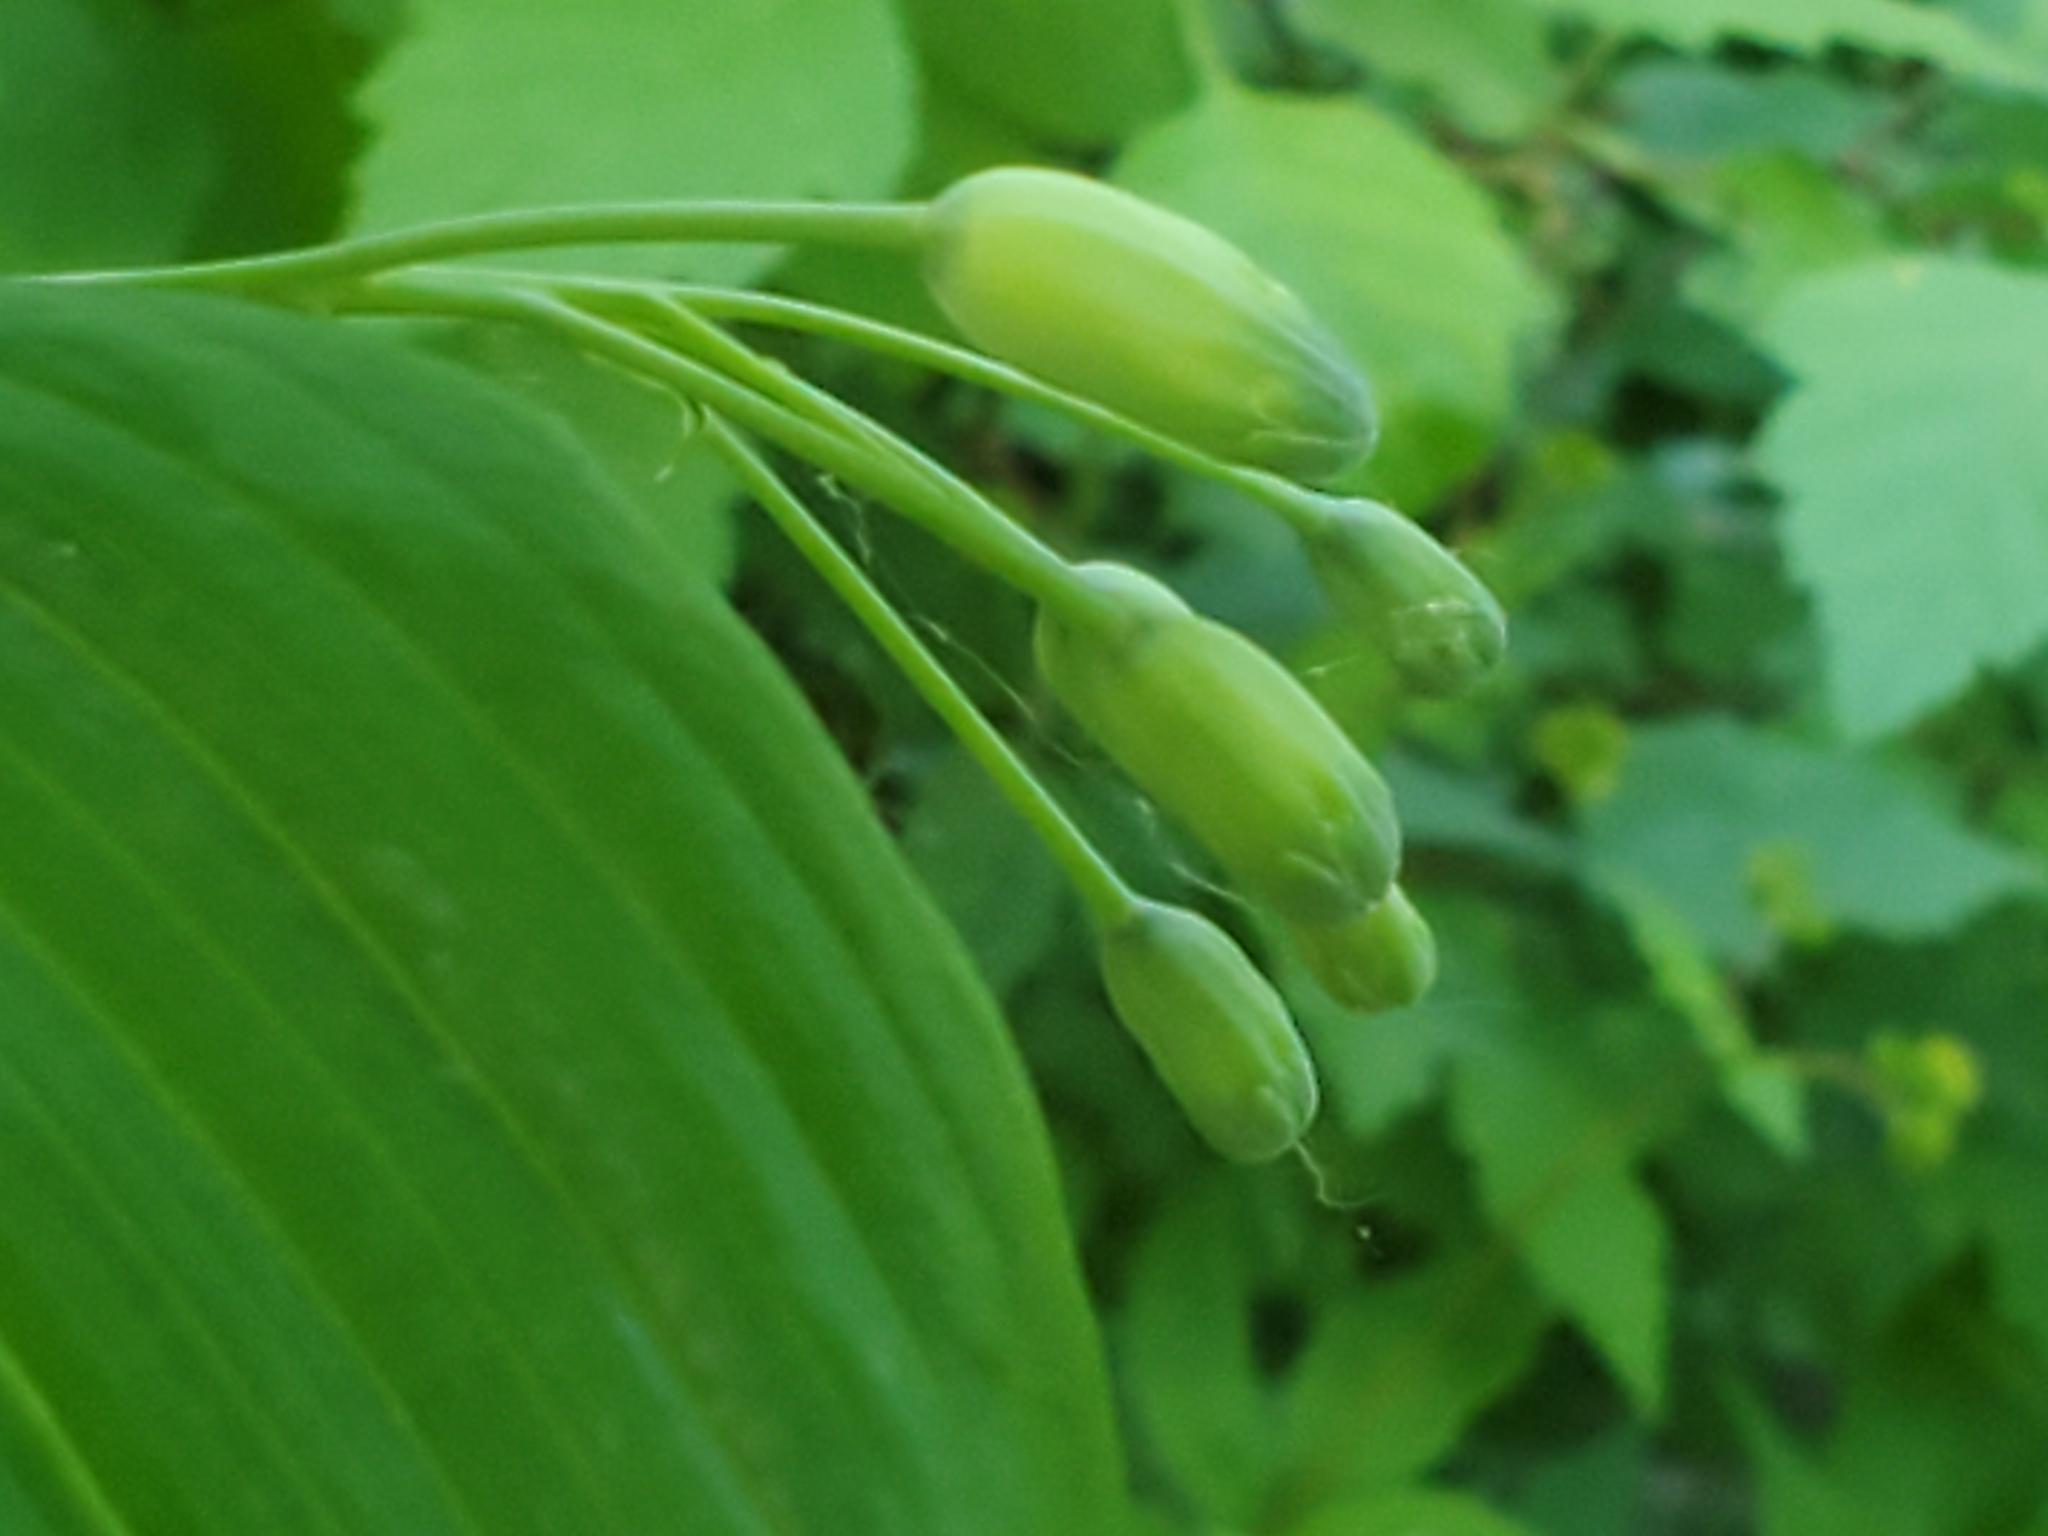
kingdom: Plantae
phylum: Tracheophyta
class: Liliopsida
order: Asparagales
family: Asparagaceae
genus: Polygonatum
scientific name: Polygonatum biflorum
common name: American solomon's-seal
